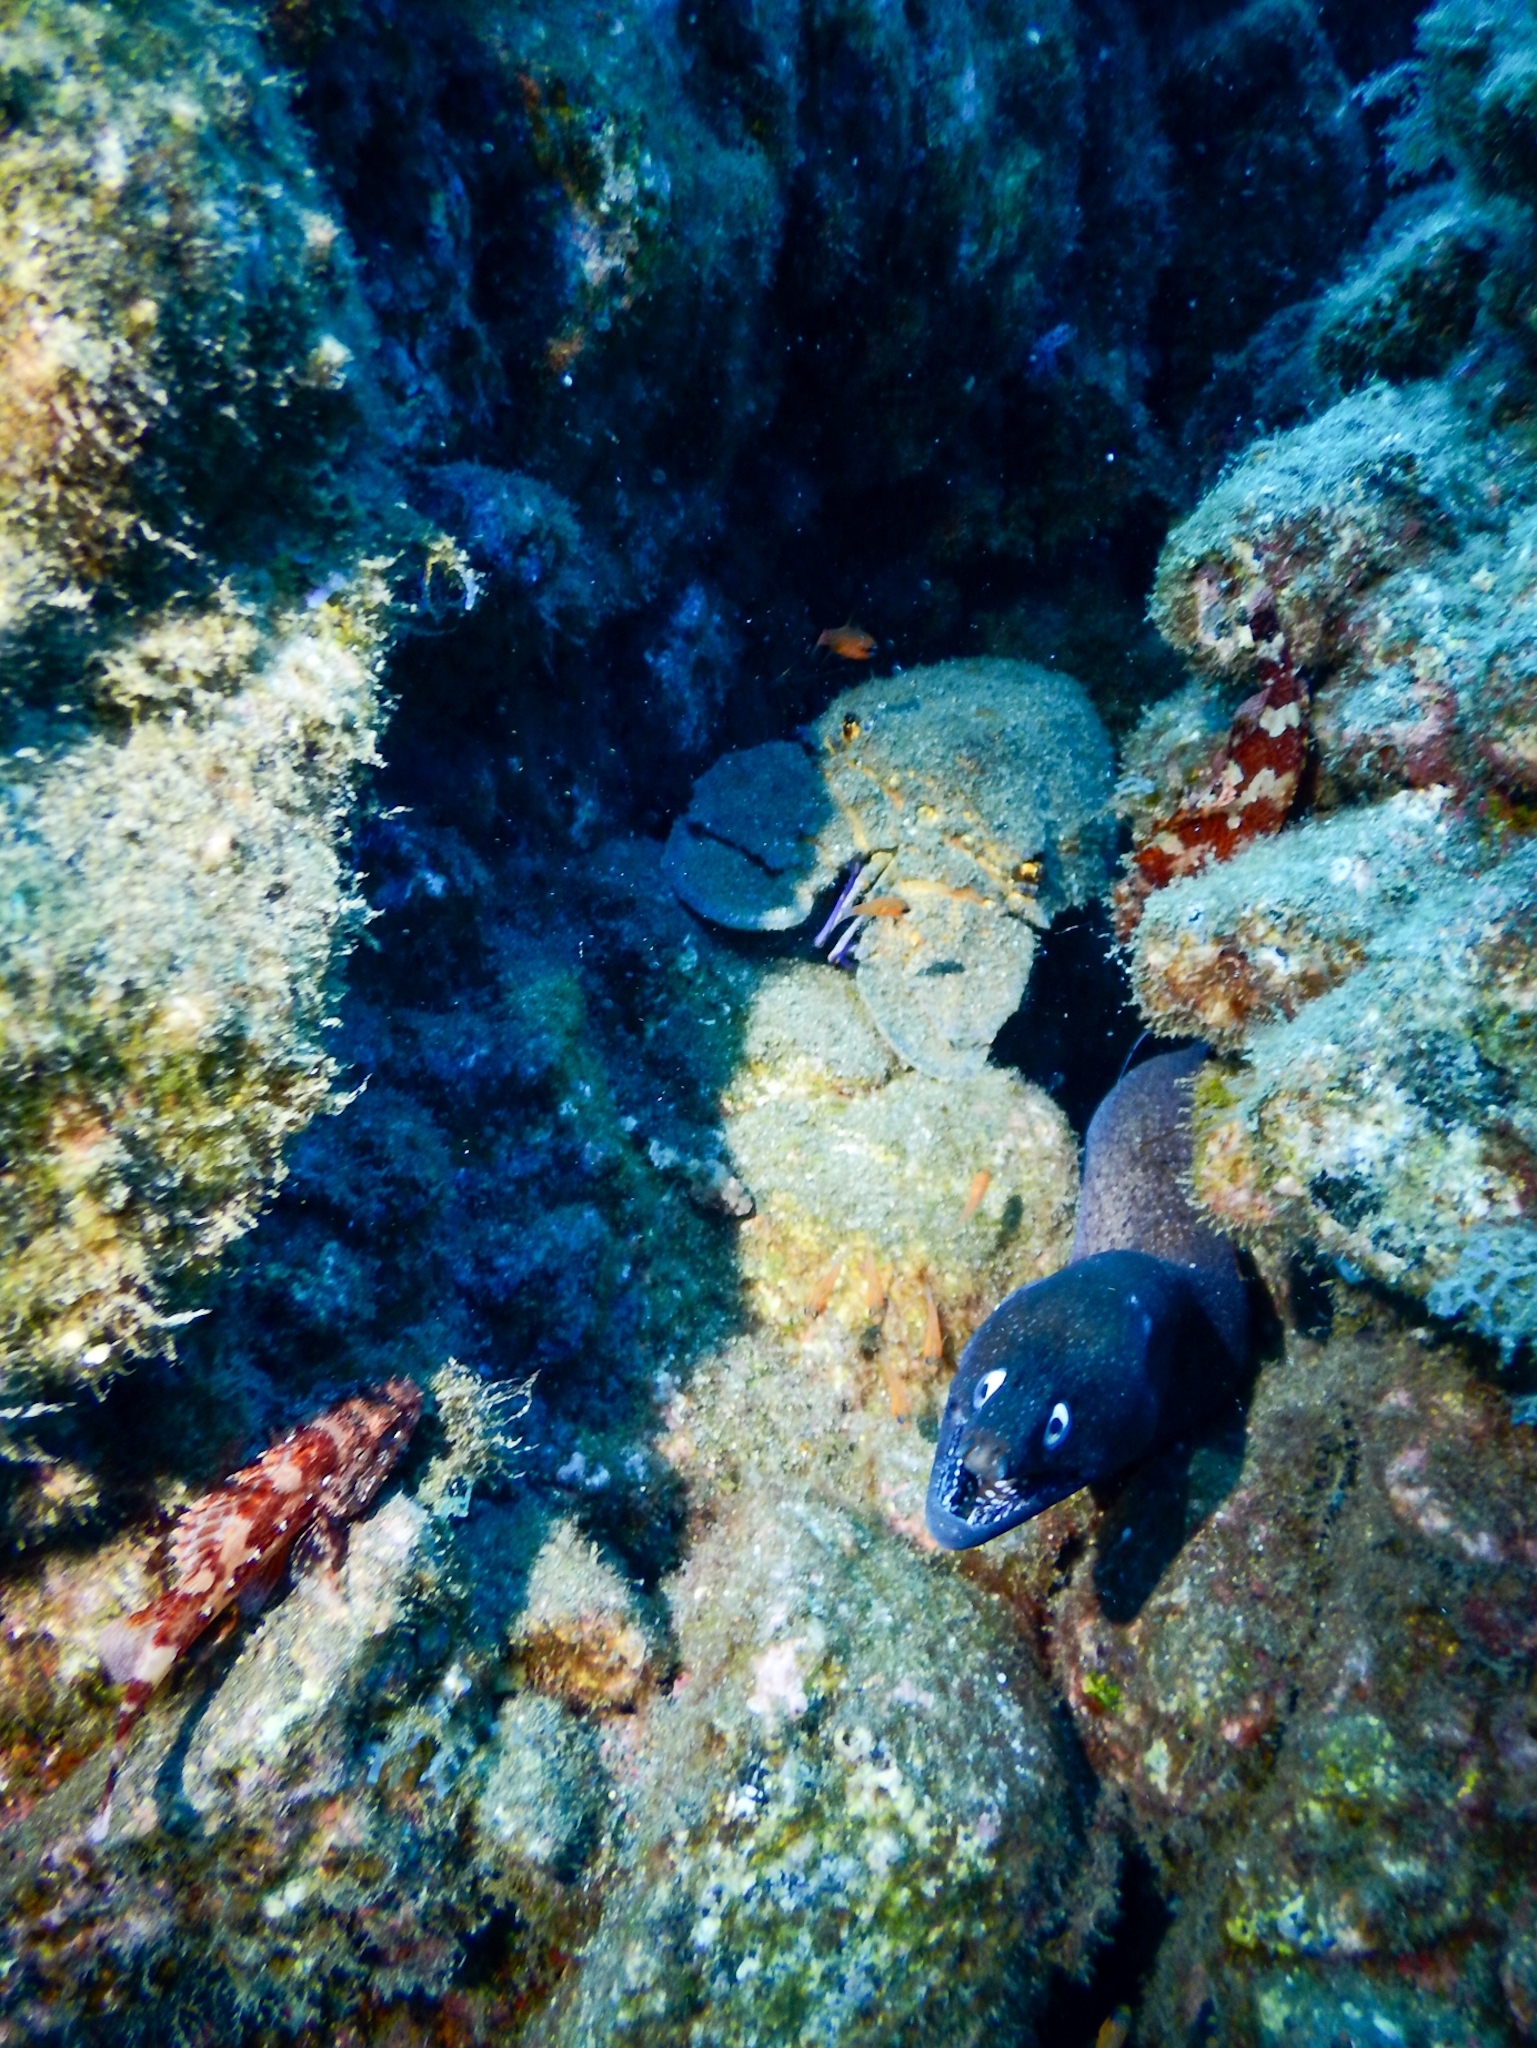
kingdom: Animalia
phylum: Chordata
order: Anguilliformes
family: Muraenidae
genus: Muraena
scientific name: Muraena augusti
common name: Mediterranean moray
